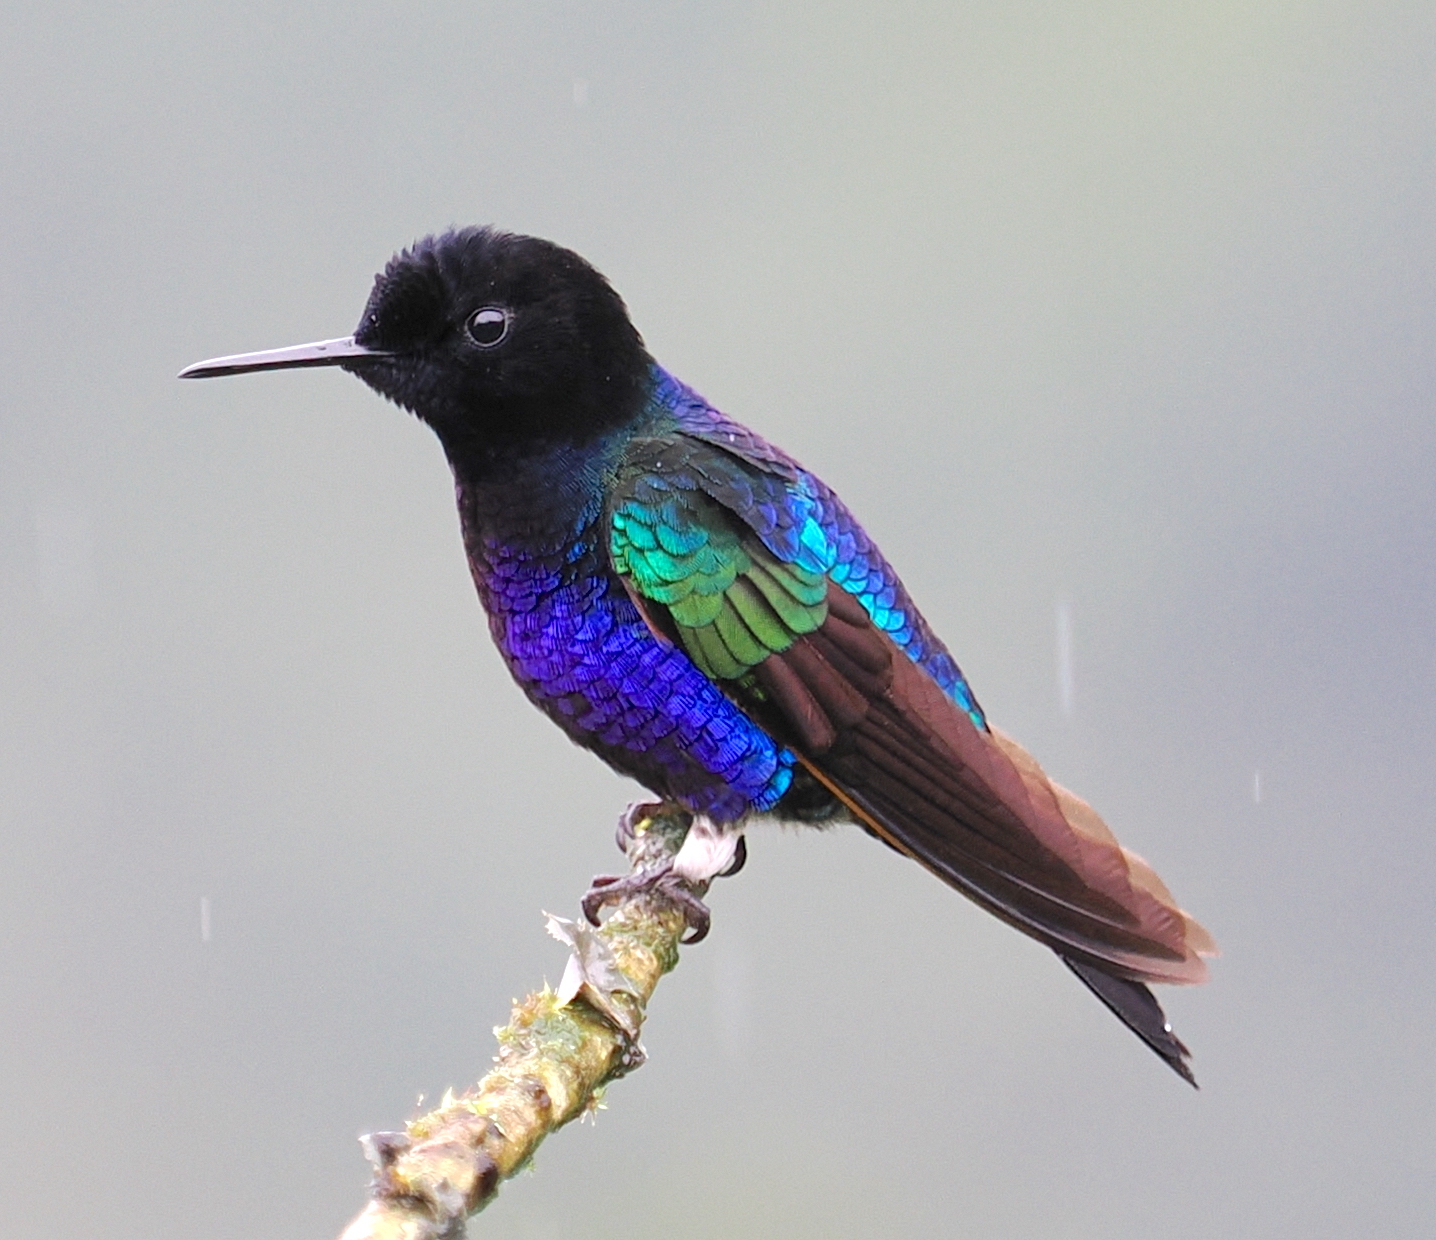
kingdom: Animalia
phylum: Chordata
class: Aves
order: Apodiformes
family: Trochilidae
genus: Boissonneaua
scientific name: Boissonneaua jardini
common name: Velvet-purple coronet
